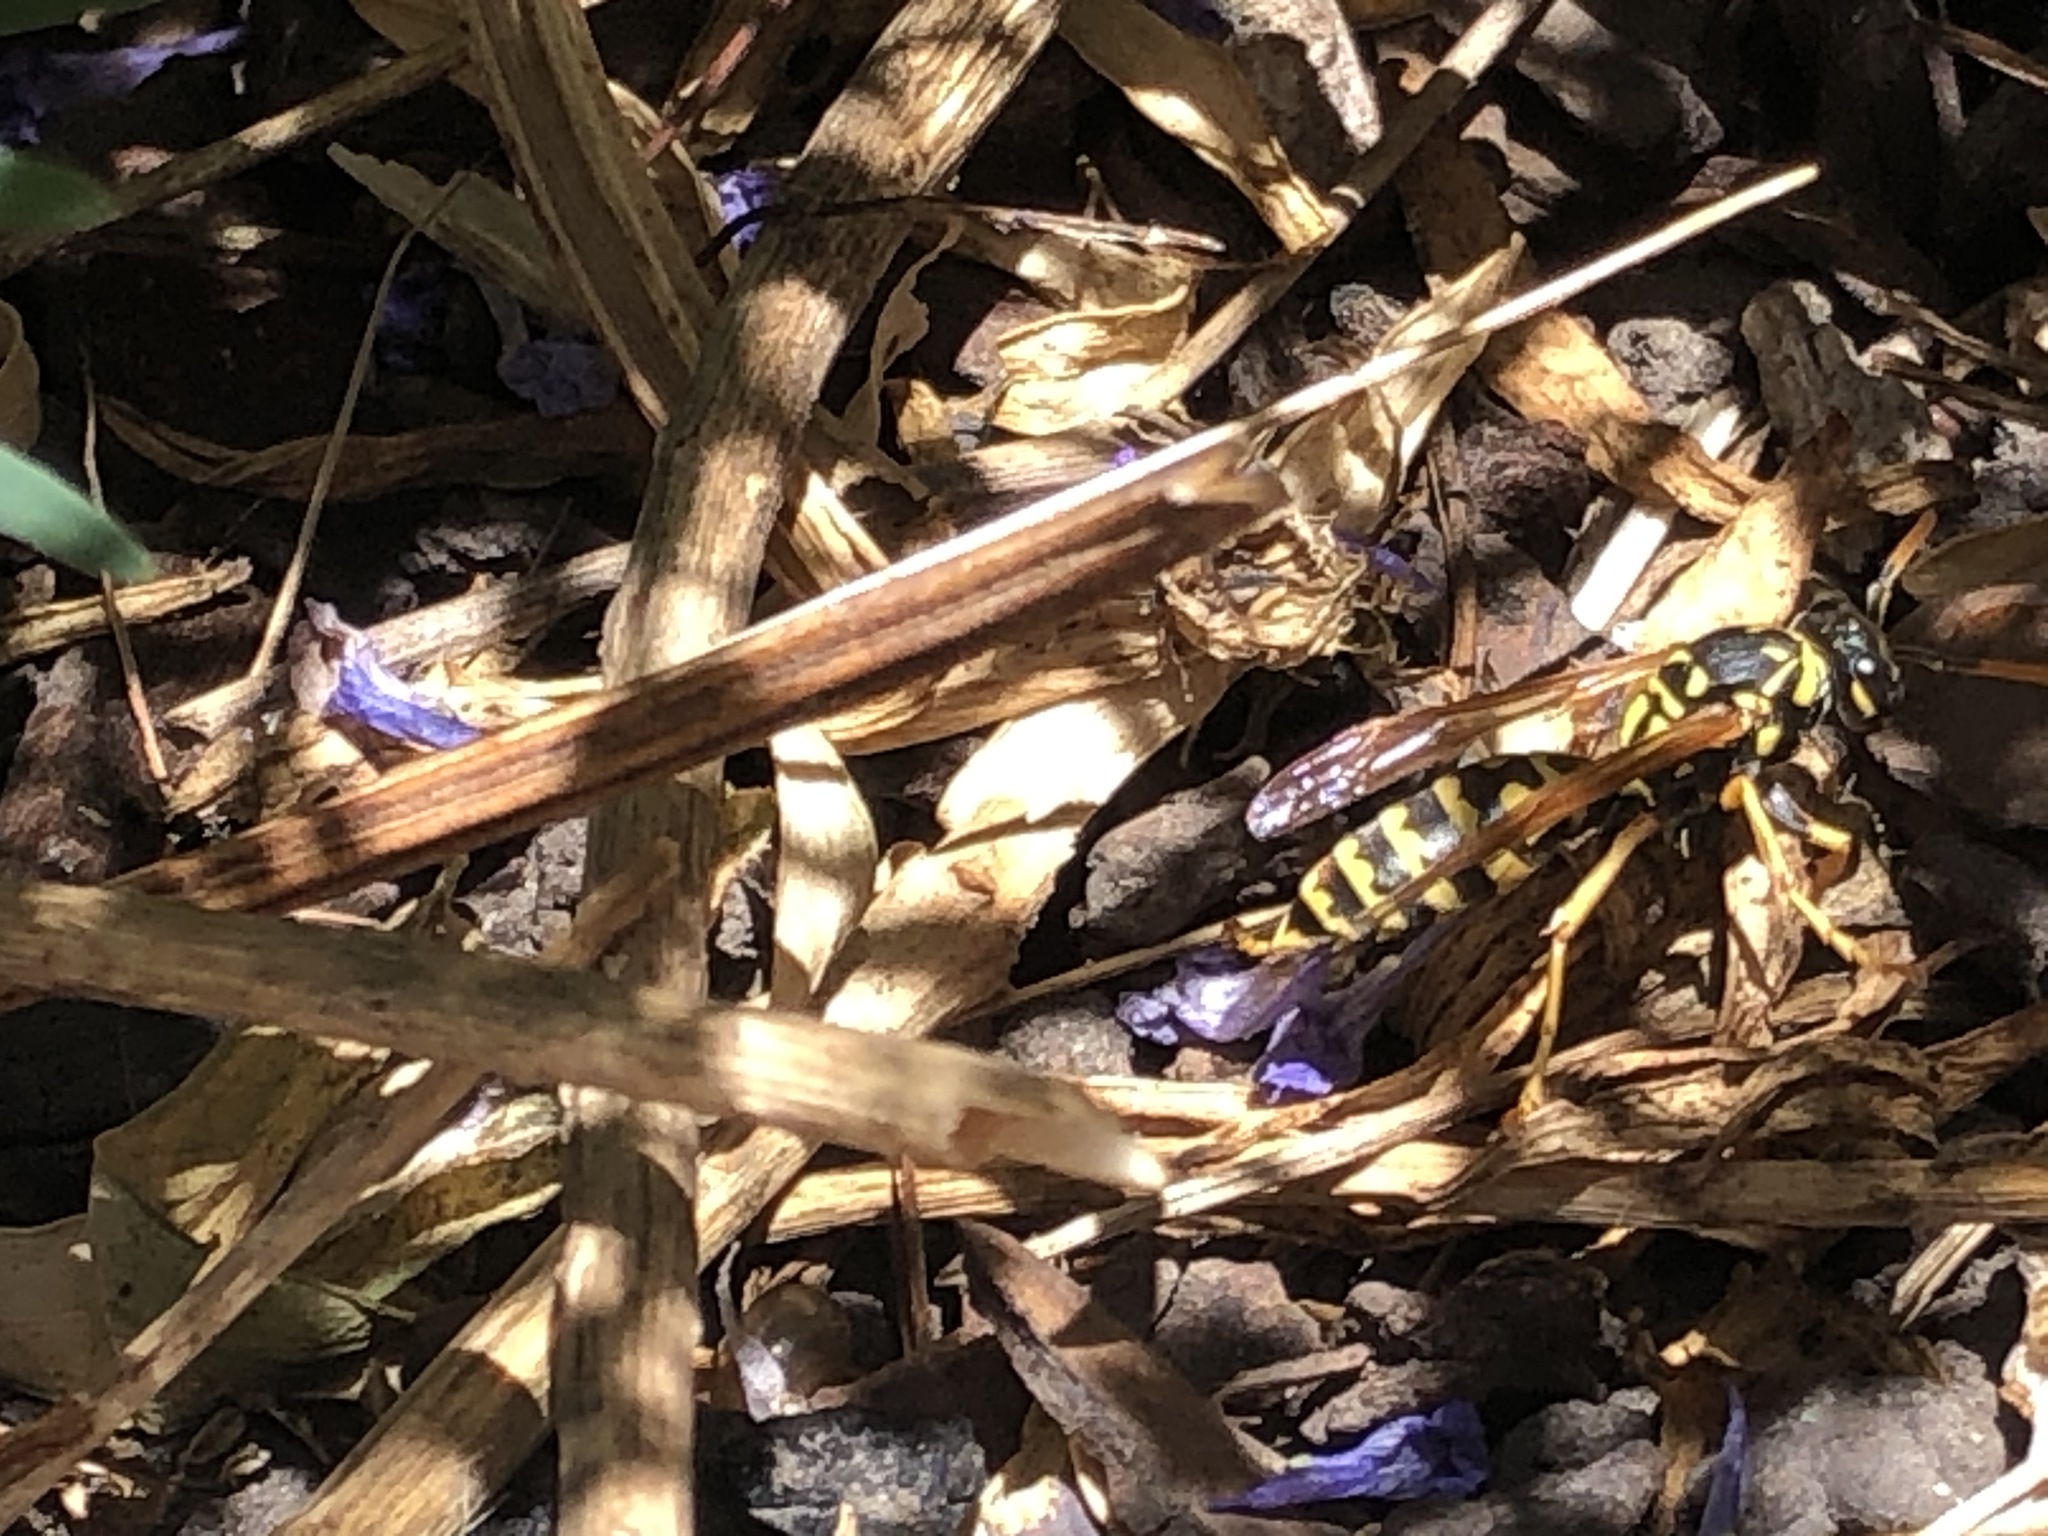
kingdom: Animalia
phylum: Arthropoda
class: Insecta
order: Hymenoptera
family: Eumenidae
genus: Polistes
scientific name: Polistes dominula
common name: Paper wasp
